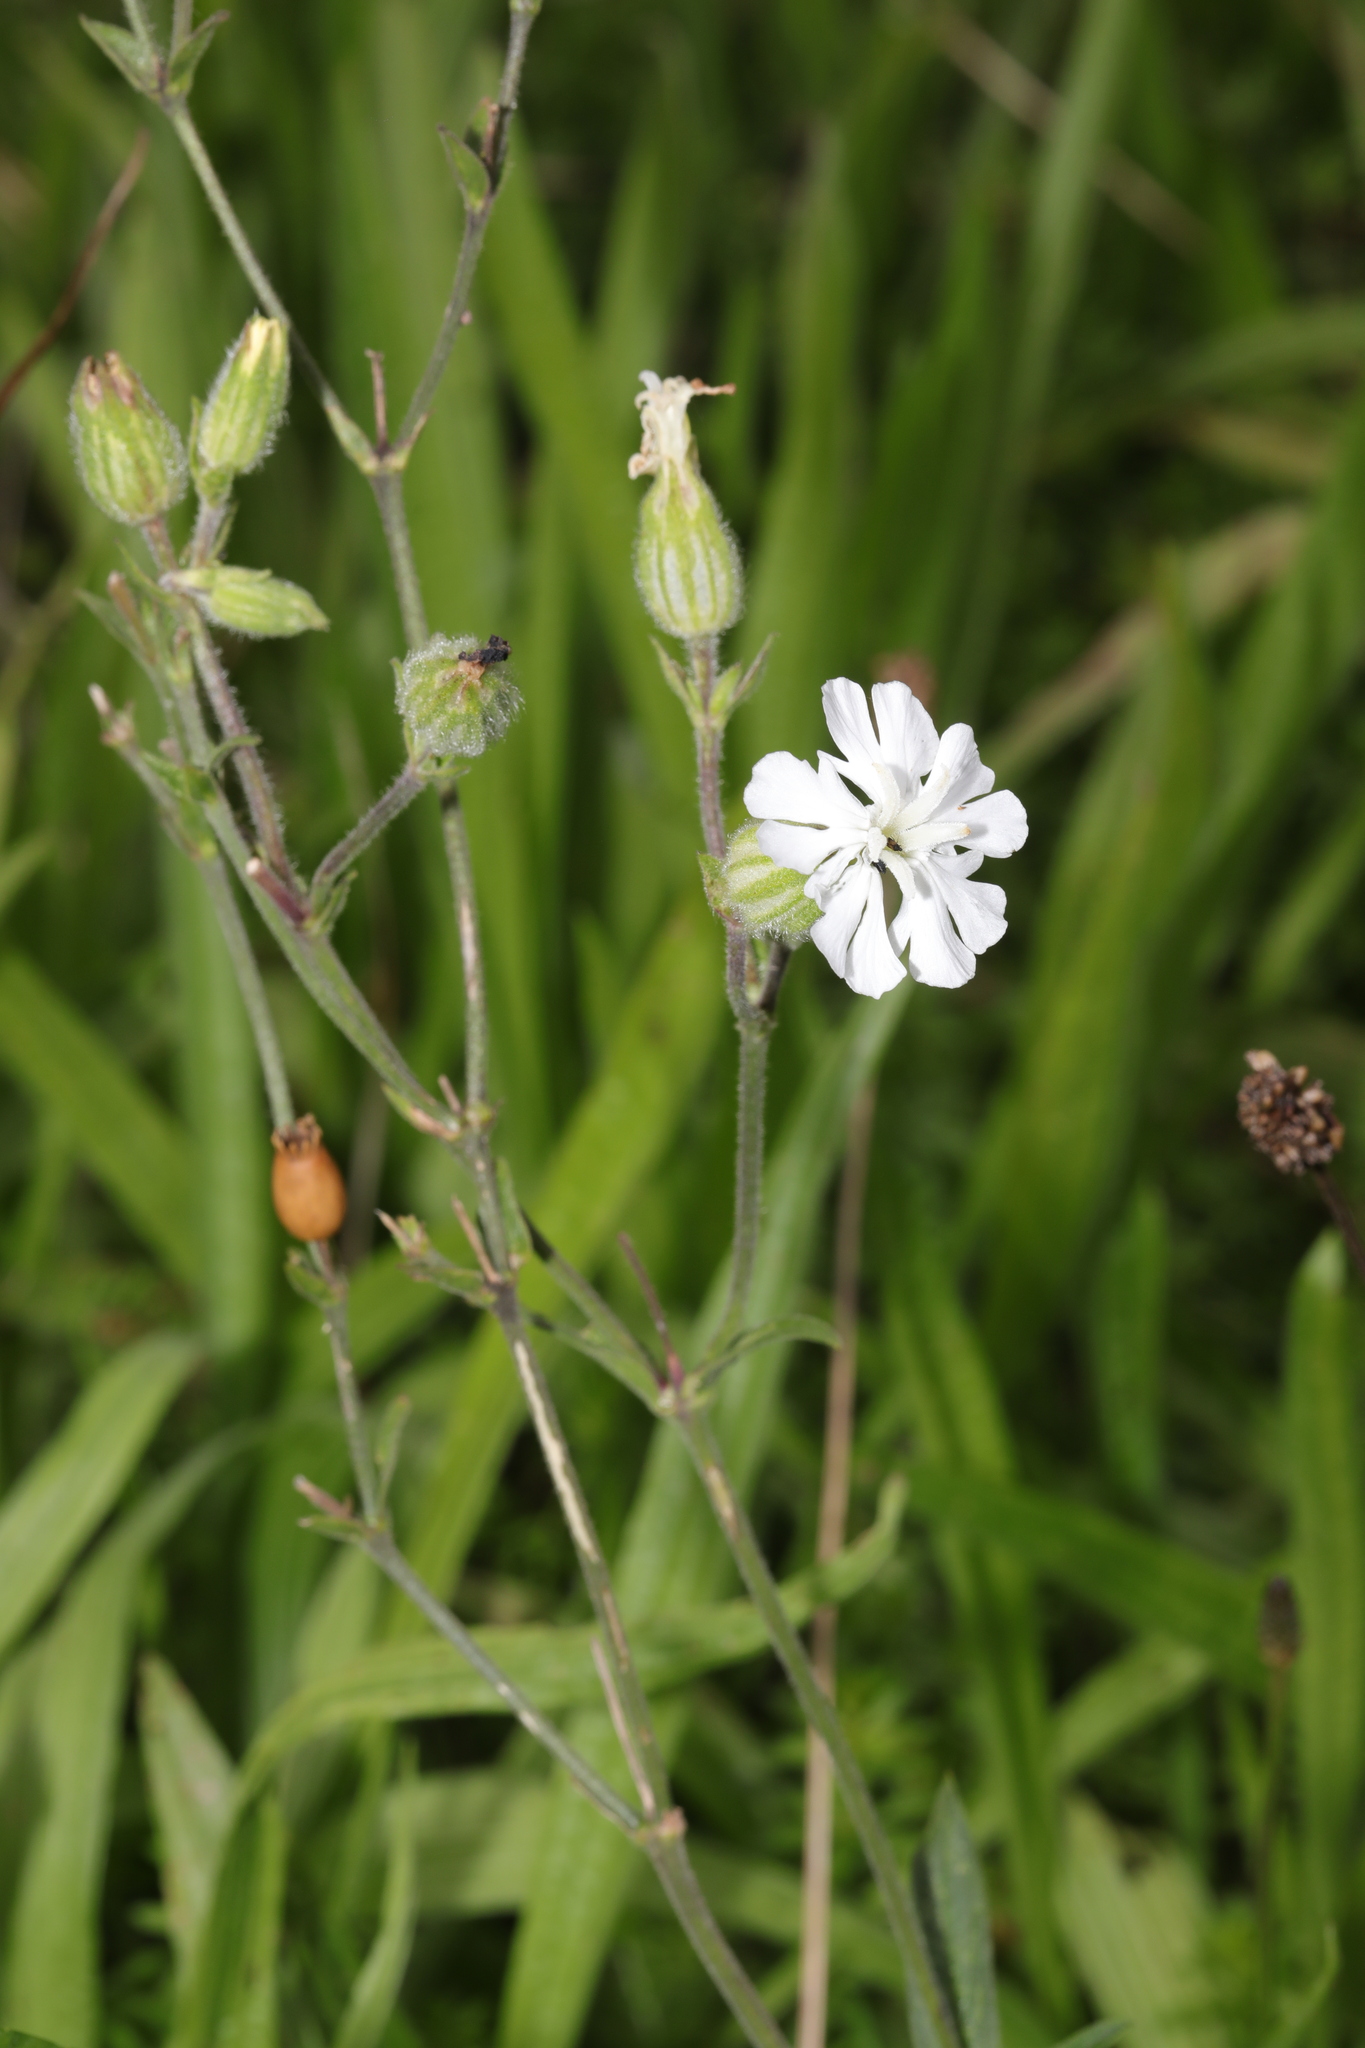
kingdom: Plantae
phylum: Tracheophyta
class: Magnoliopsida
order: Caryophyllales
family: Caryophyllaceae
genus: Silene
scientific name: Silene latifolia
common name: White campion
